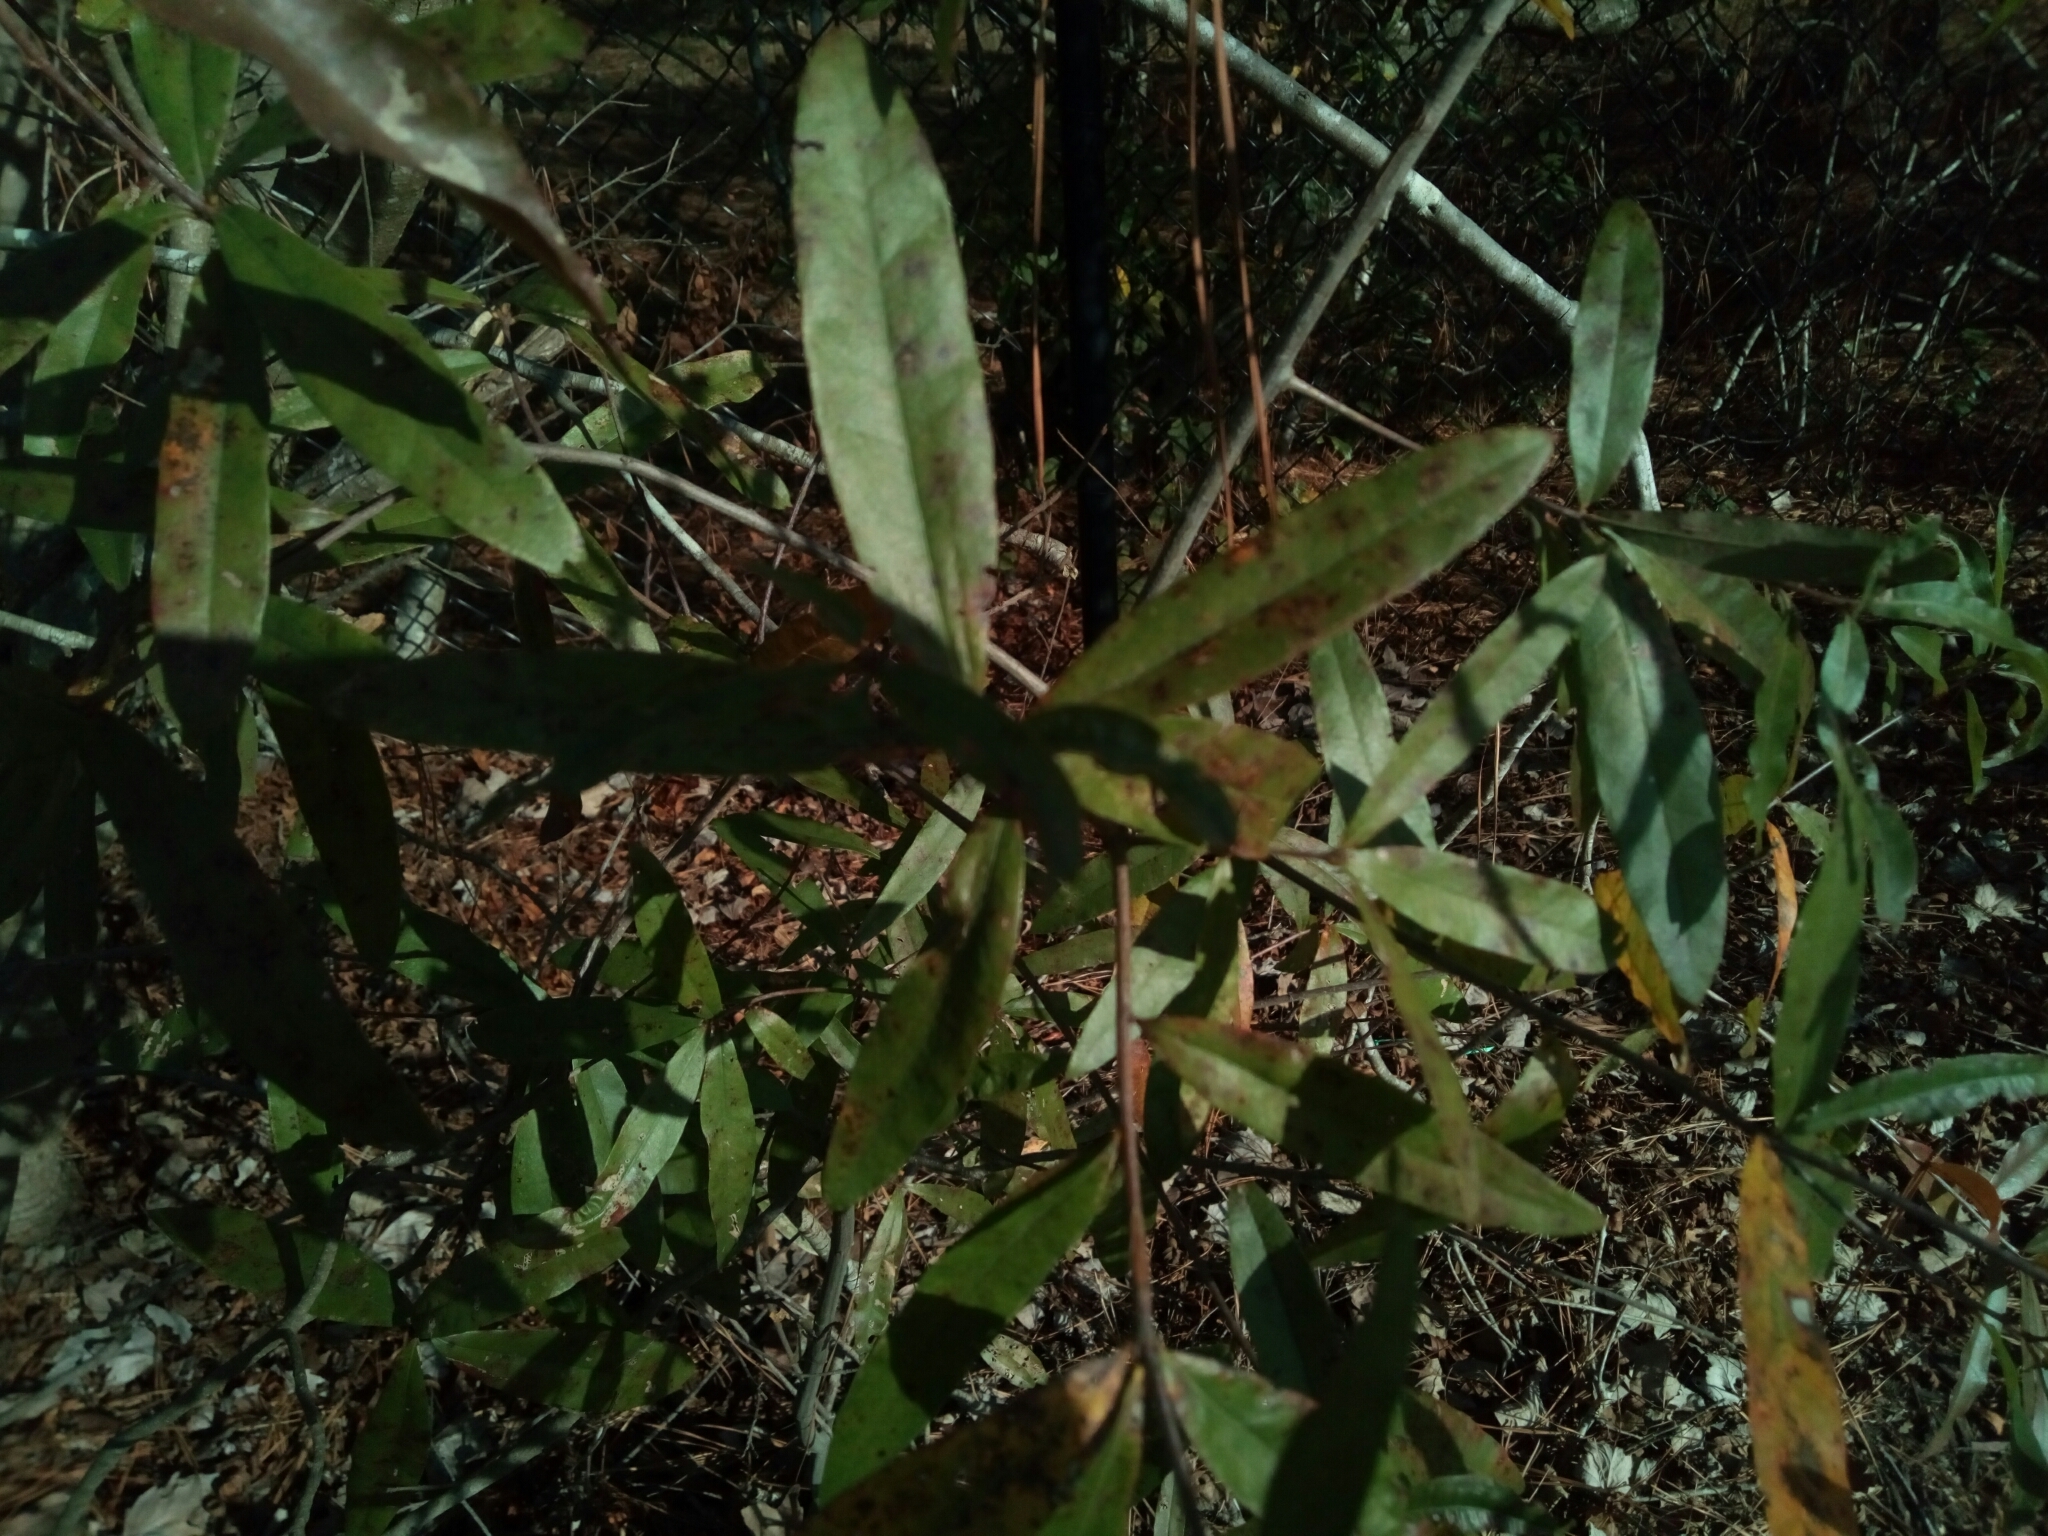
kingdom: Plantae
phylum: Tracheophyta
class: Magnoliopsida
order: Fagales
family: Fagaceae
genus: Quercus
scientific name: Quercus phellos
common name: Willow oak
